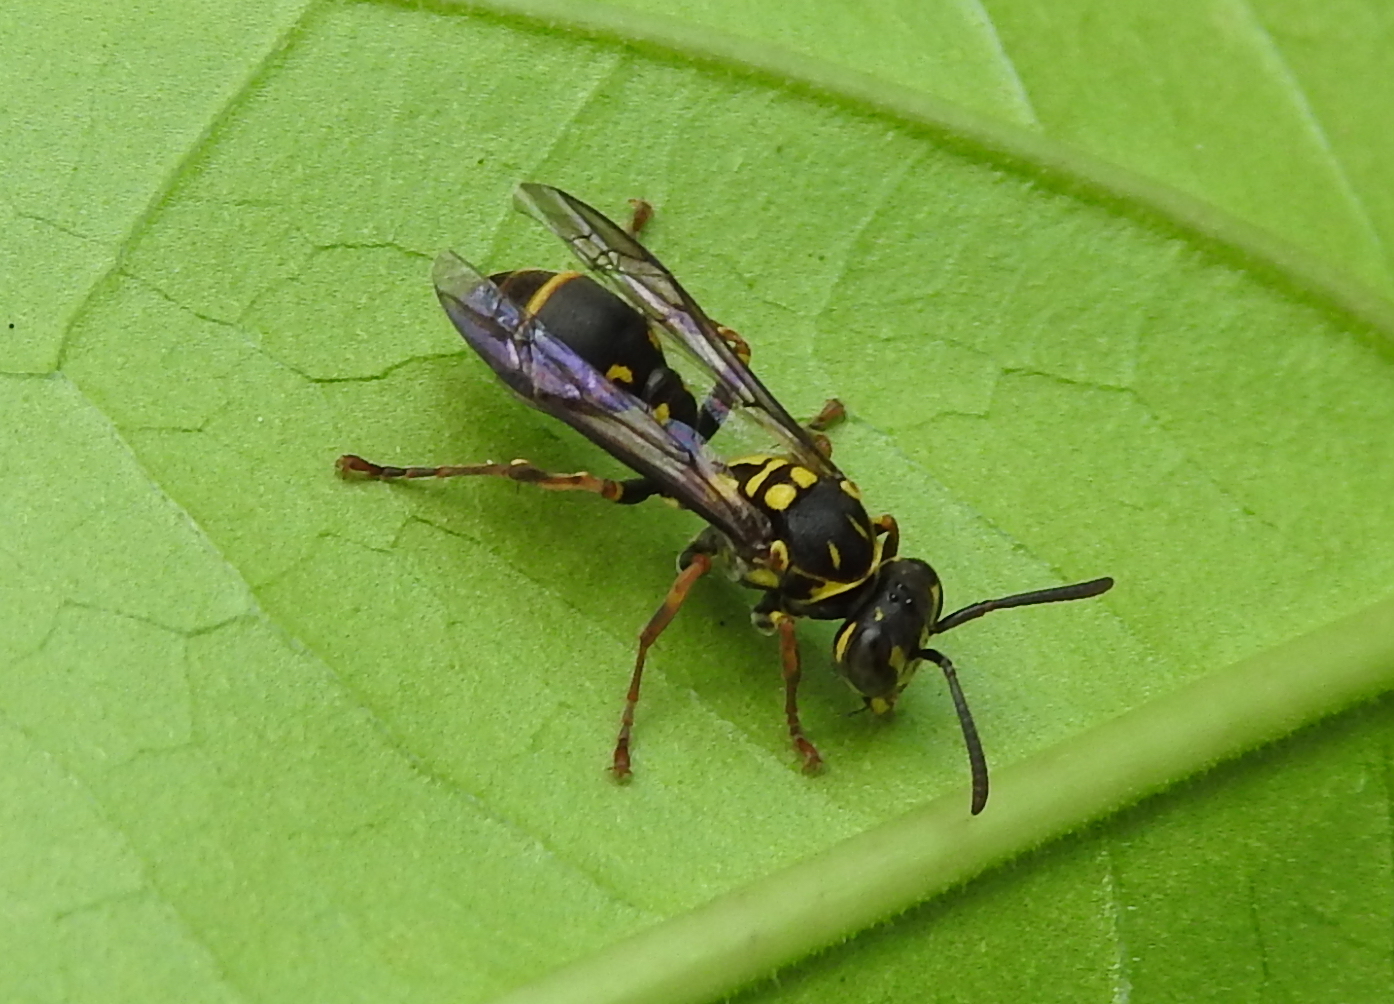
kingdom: Animalia
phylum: Arthropoda
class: Insecta
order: Hymenoptera
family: Vespidae
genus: Ropalidia
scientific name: Ropalidia flavopicta
